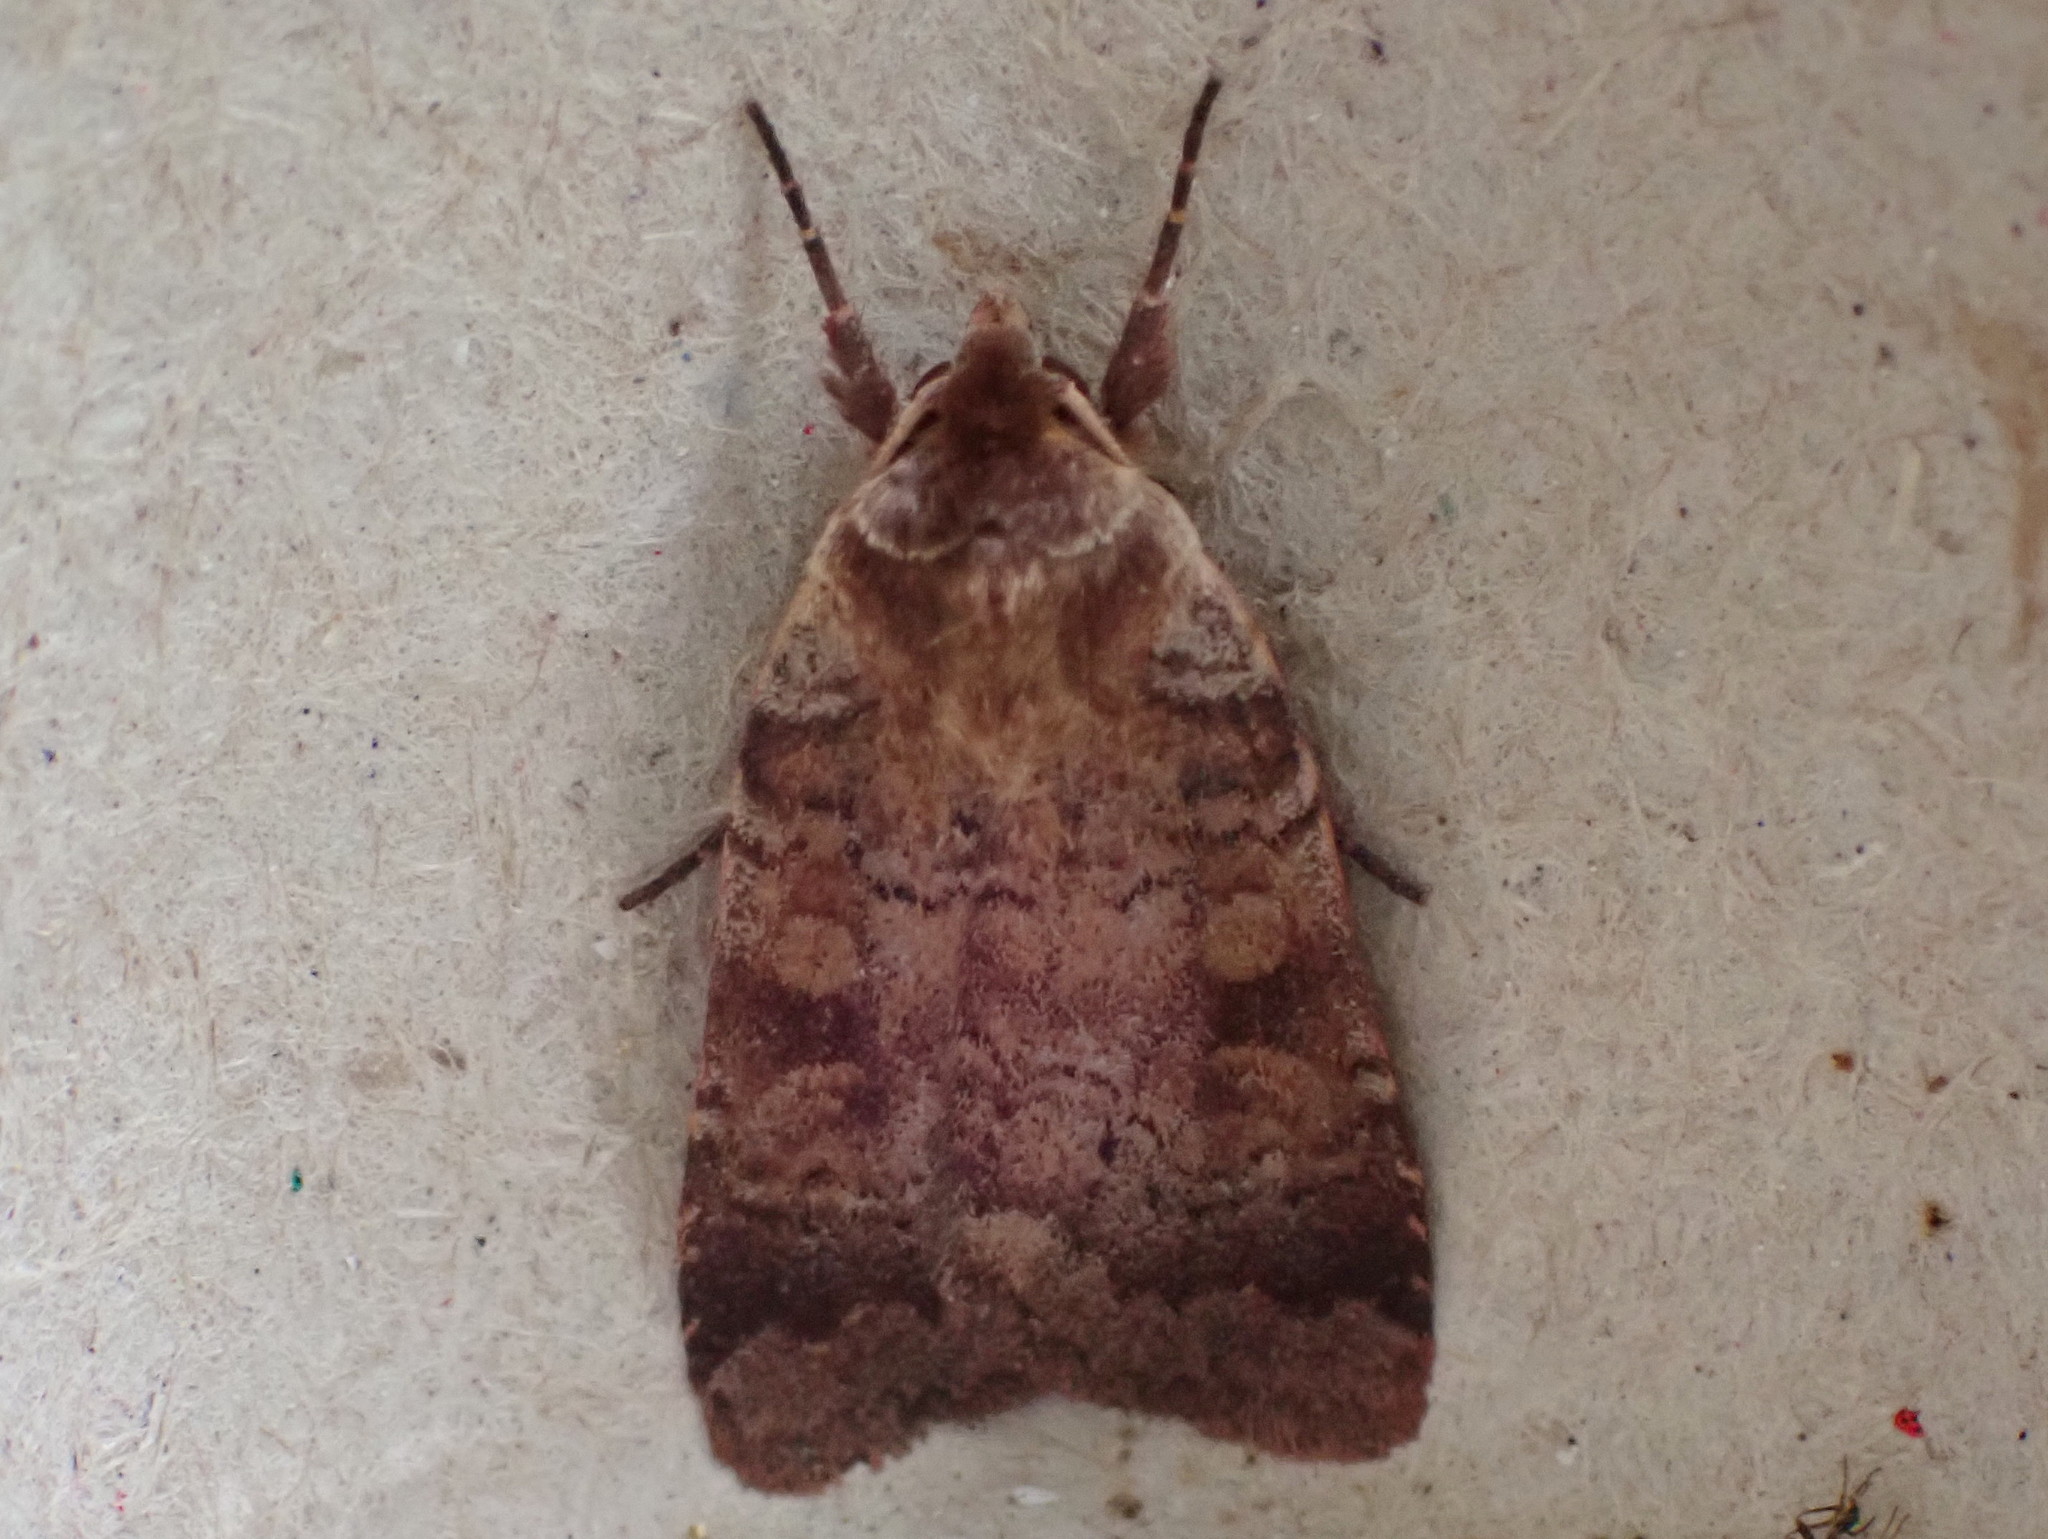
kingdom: Animalia
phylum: Arthropoda
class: Insecta
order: Lepidoptera
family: Noctuidae
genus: Lycophotia
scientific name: Lycophotia phyllophora
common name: Lycophotia moth
